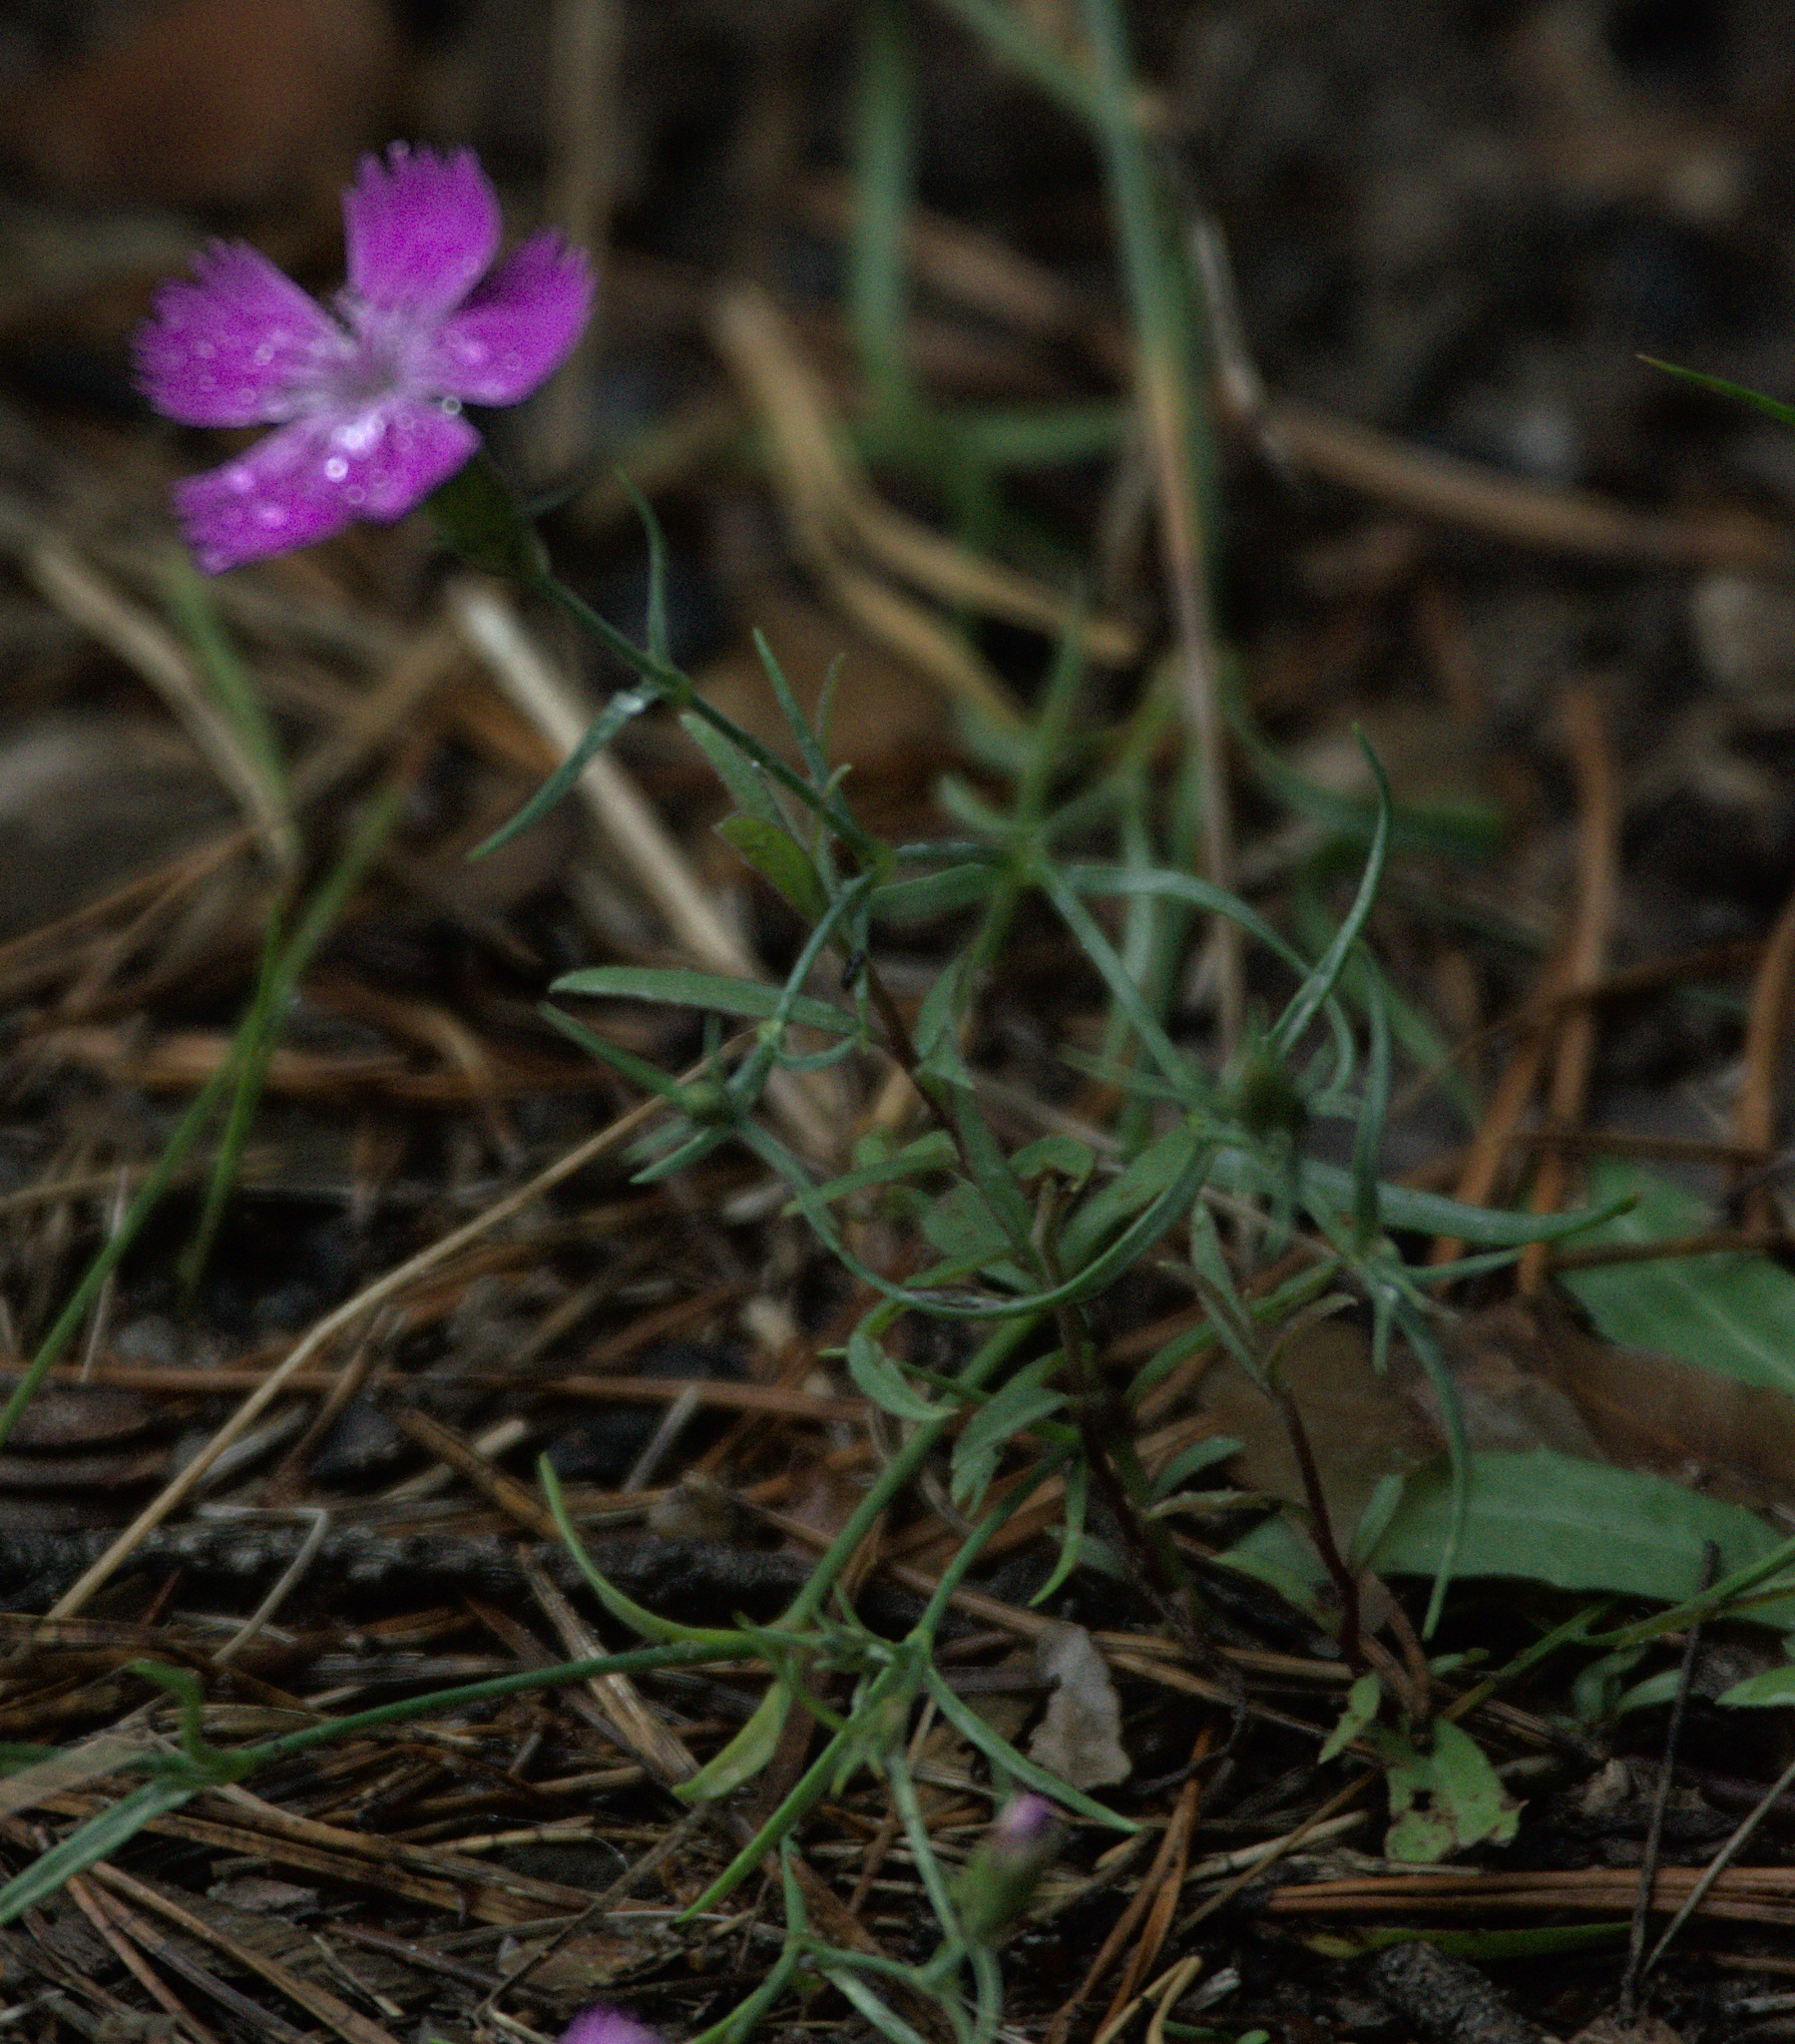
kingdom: Plantae
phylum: Tracheophyta
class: Magnoliopsida
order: Caryophyllales
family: Caryophyllaceae
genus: Dianthus
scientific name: Dianthus chinensis
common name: Rainbow pink
